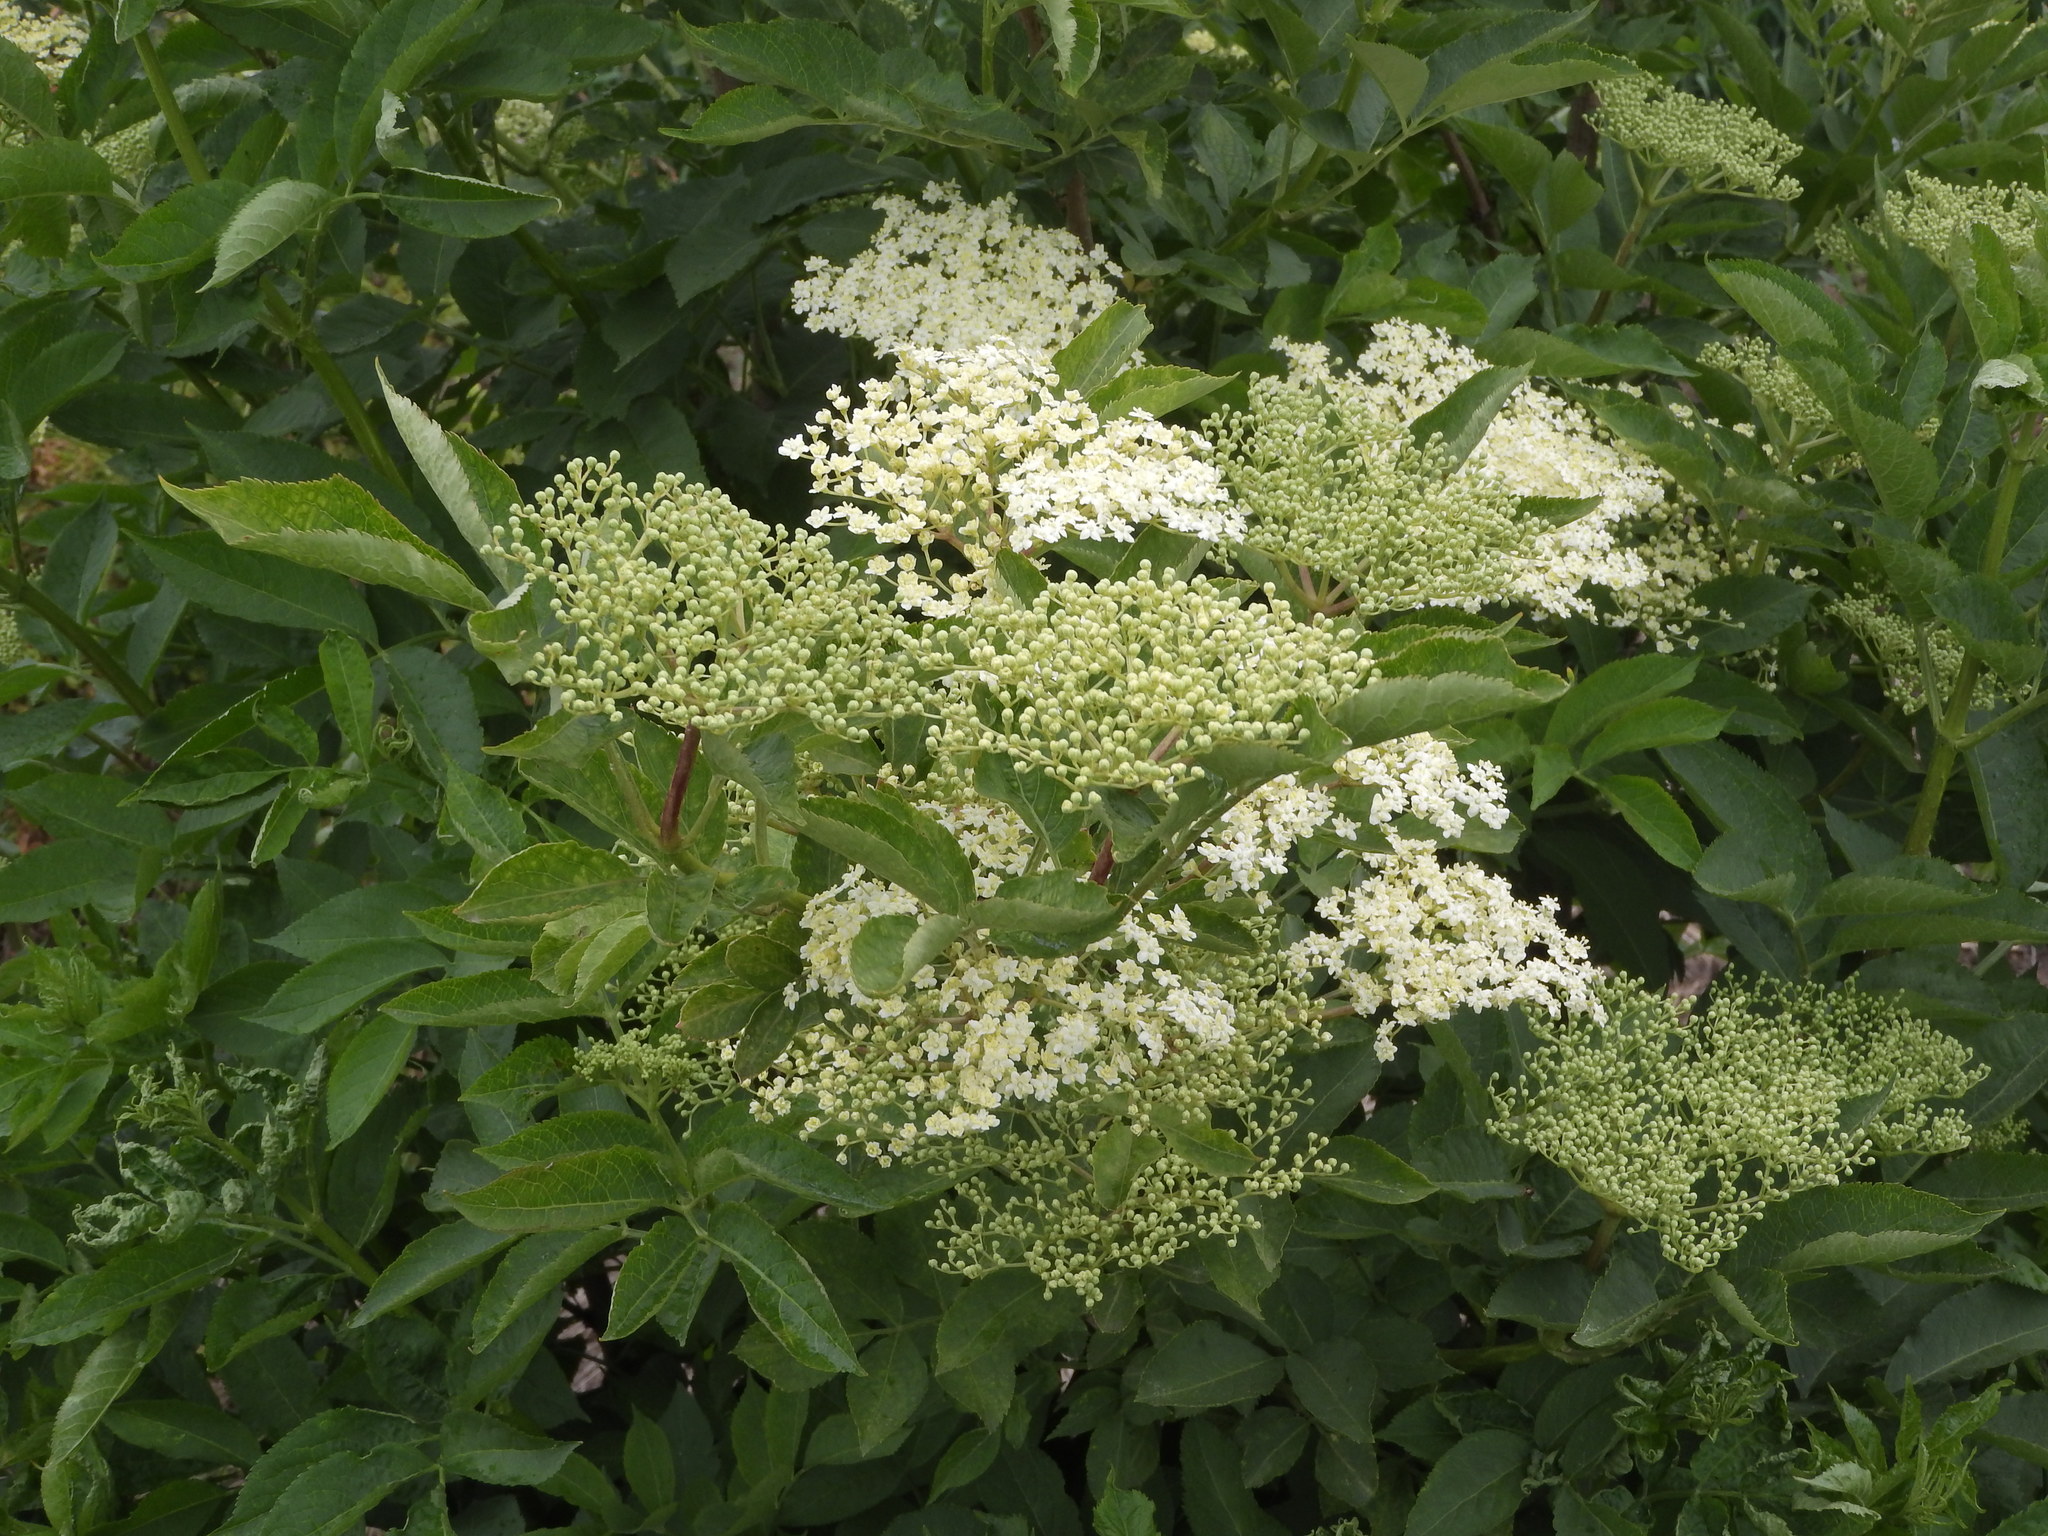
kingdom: Plantae
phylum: Tracheophyta
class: Magnoliopsida
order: Dipsacales
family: Viburnaceae
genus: Sambucus
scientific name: Sambucus nigra
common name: Elder
